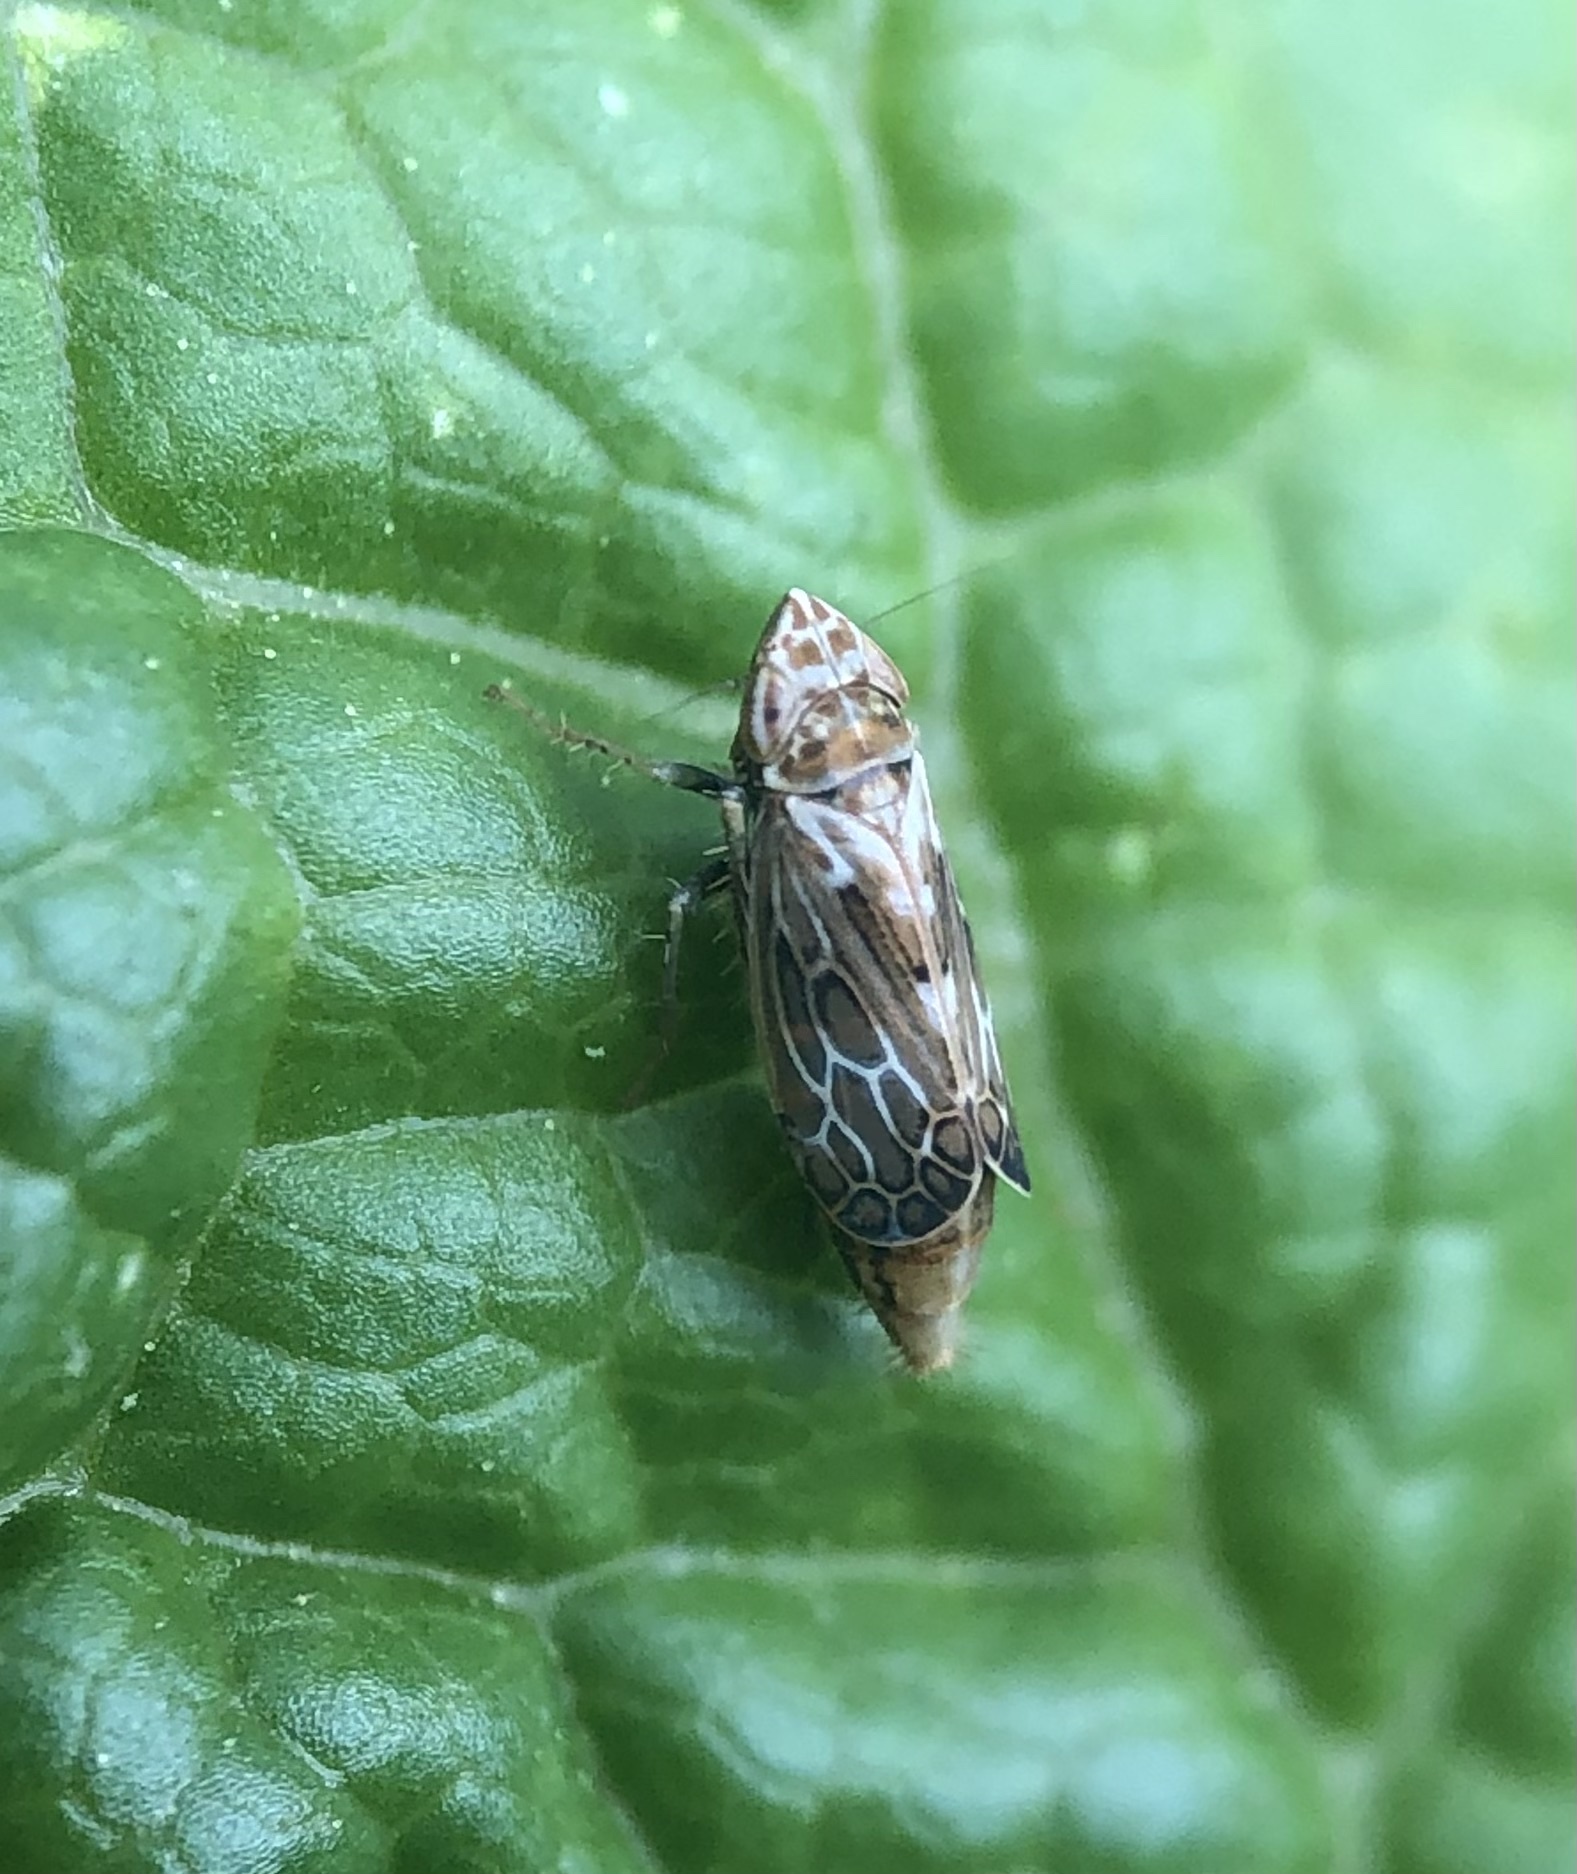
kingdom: Animalia
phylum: Arthropoda
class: Insecta
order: Hemiptera
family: Cicadellidae
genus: Latalus
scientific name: Latalus sayii
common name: Say’s leafhopper
